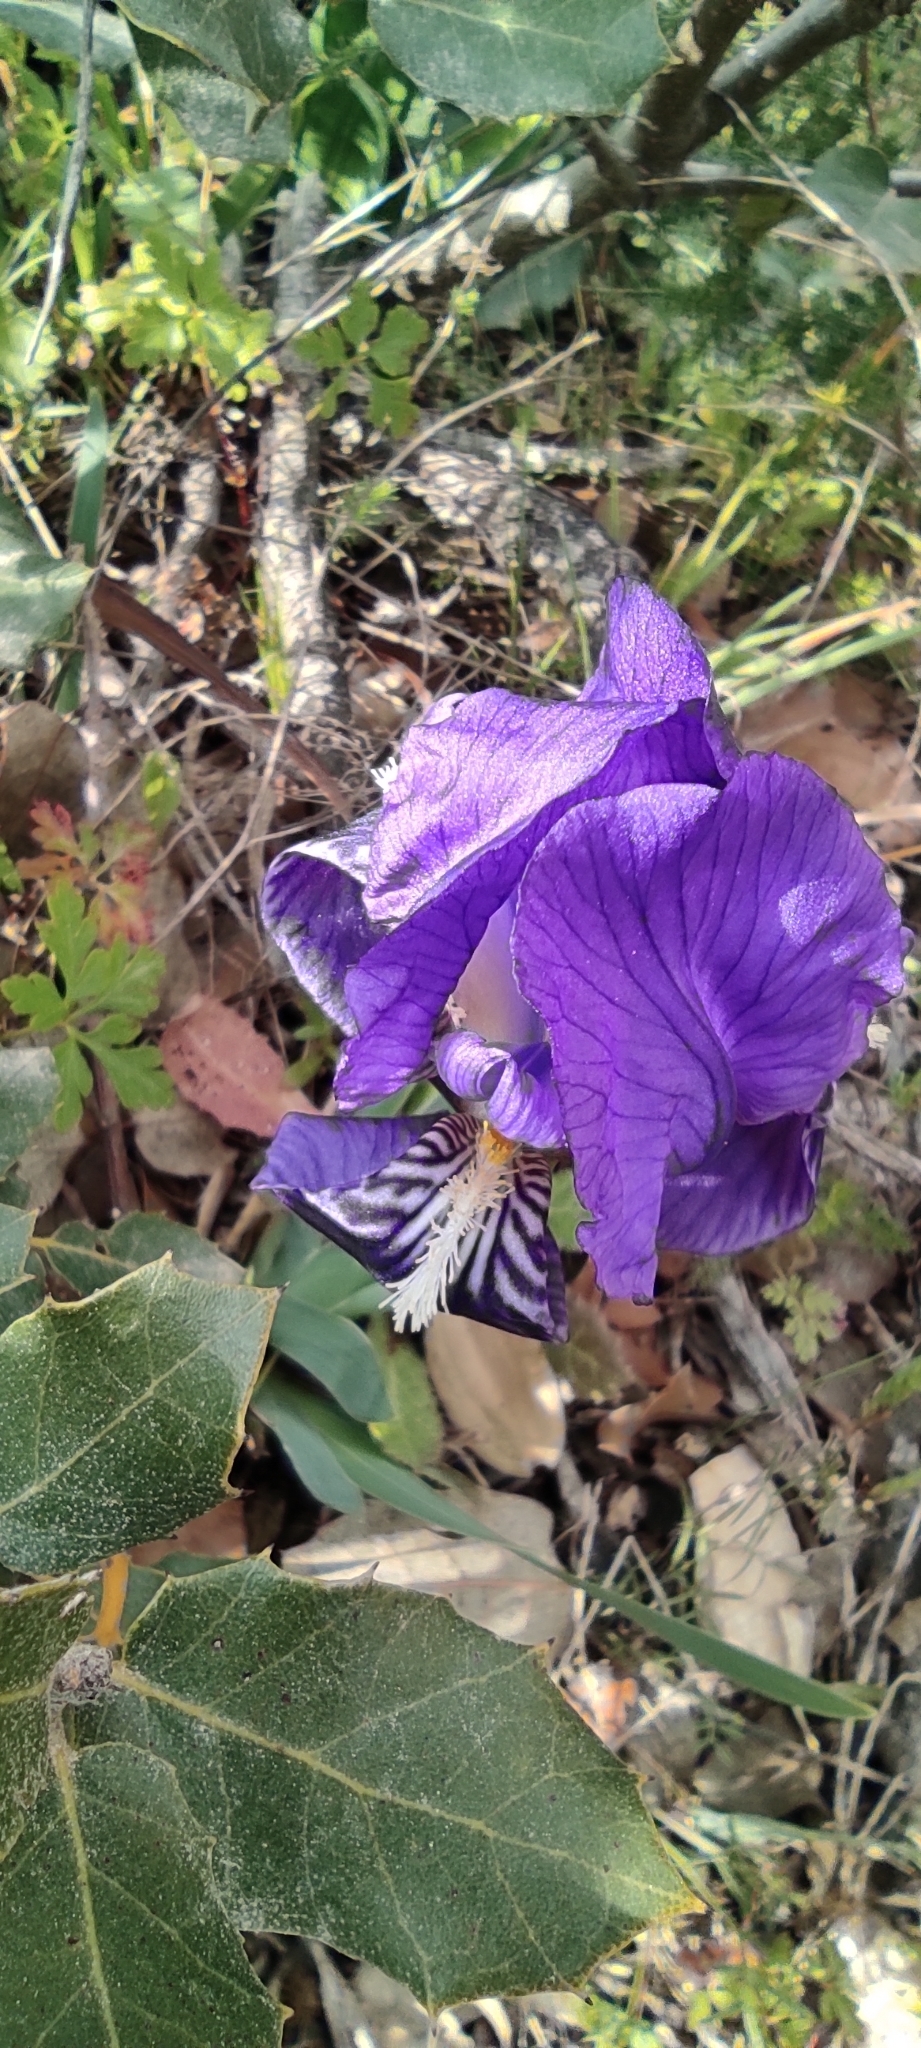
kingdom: Plantae
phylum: Tracheophyta
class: Liliopsida
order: Asparagales
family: Iridaceae
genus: Iris
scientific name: Iris lutescens
